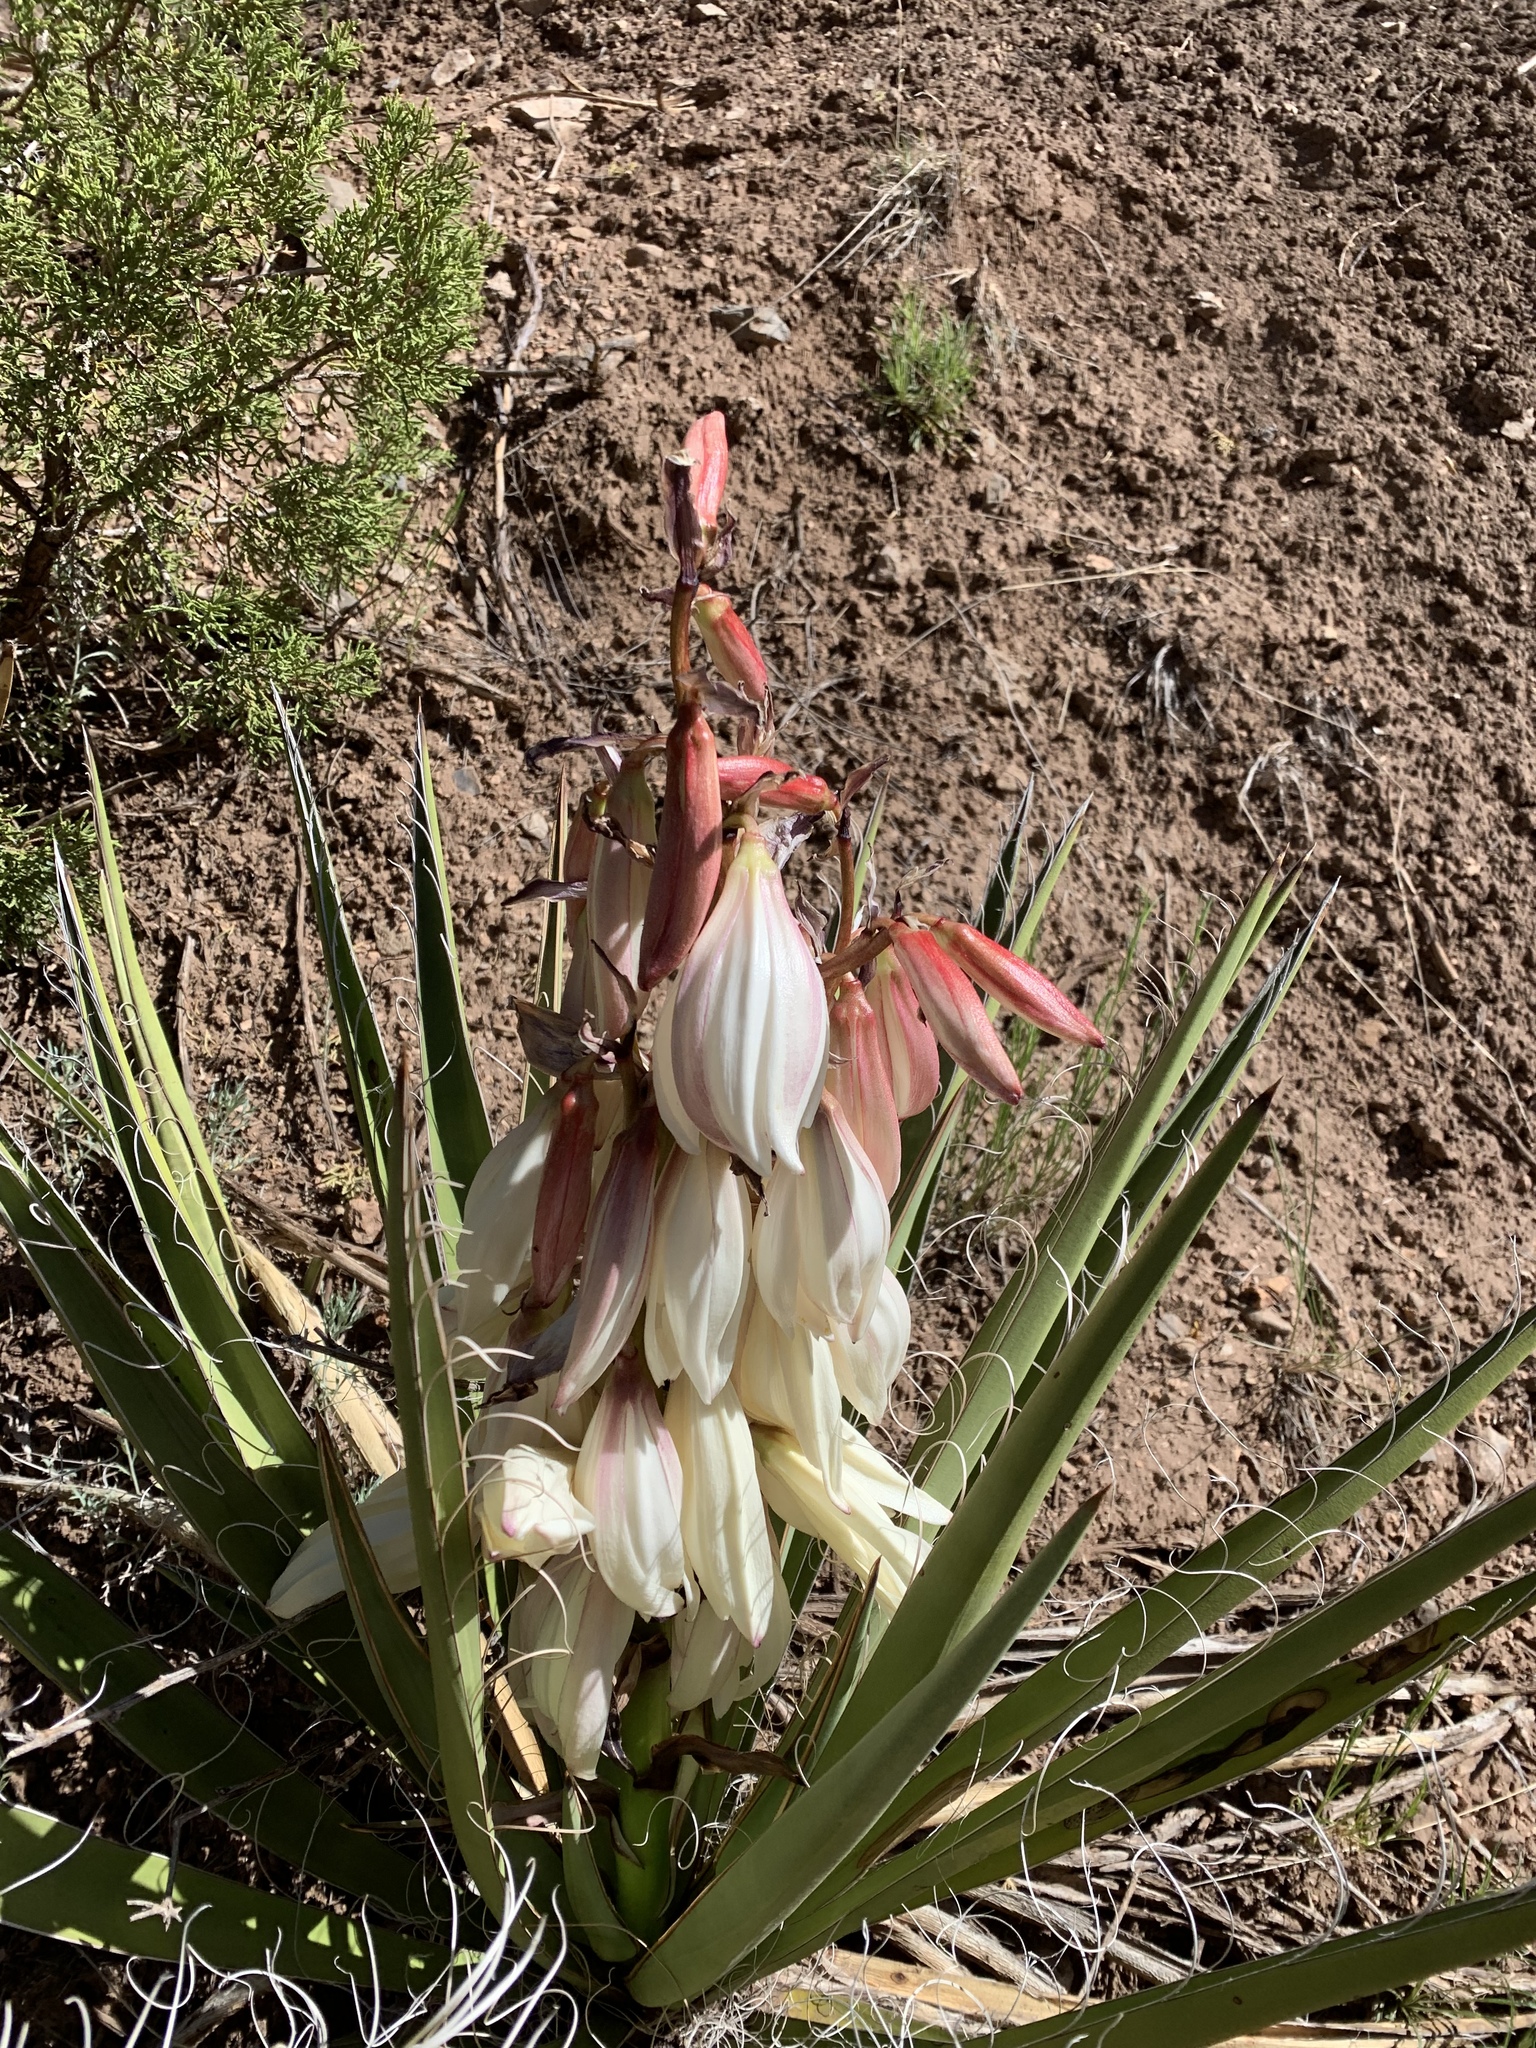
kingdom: Plantae
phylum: Tracheophyta
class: Liliopsida
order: Asparagales
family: Asparagaceae
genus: Yucca
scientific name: Yucca baccata
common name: Banana yucca
